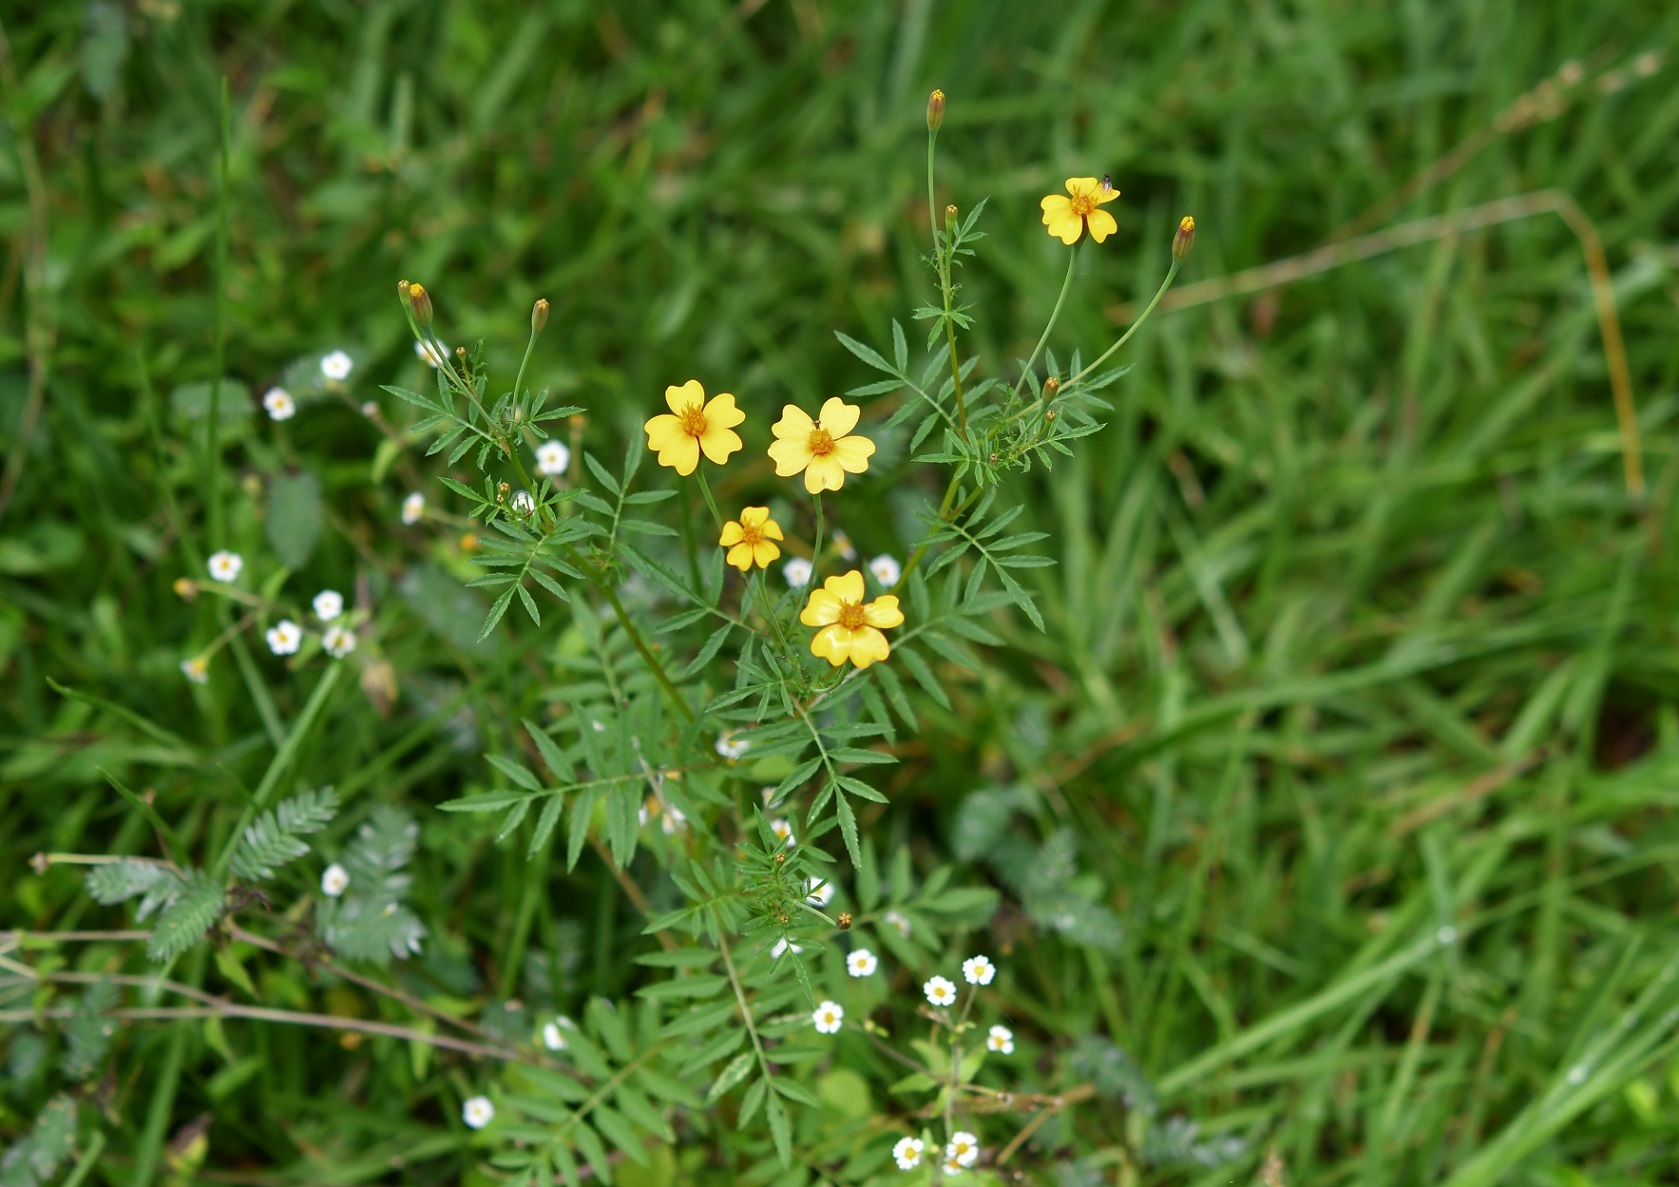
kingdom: Plantae
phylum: Tracheophyta
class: Magnoliopsida
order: Asterales
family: Asteraceae
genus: Tagetes
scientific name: Tagetes tenuifolia
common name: Signet marigold
